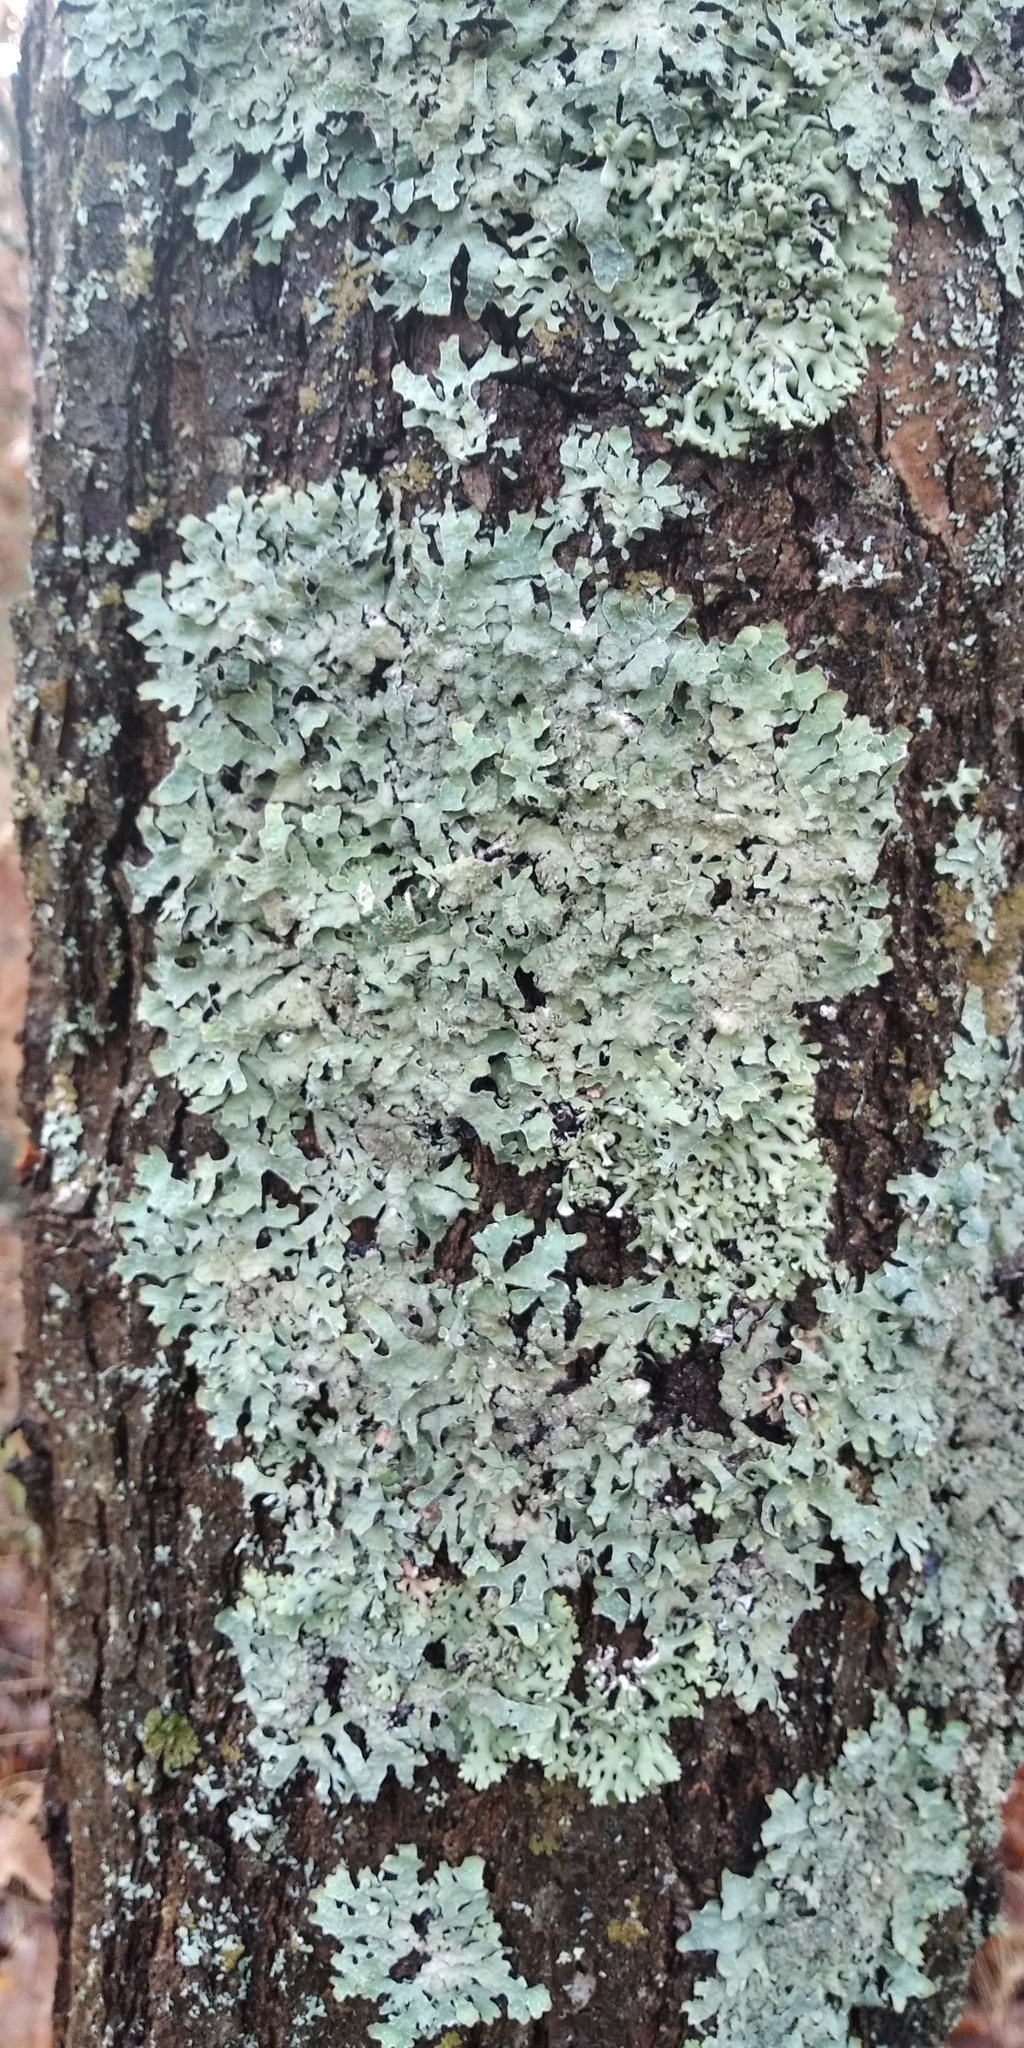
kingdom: Fungi
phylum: Ascomycota
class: Lecanoromycetes
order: Lecanorales
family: Parmeliaceae
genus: Parmelia
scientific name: Parmelia sulcata
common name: Netted shield lichen
